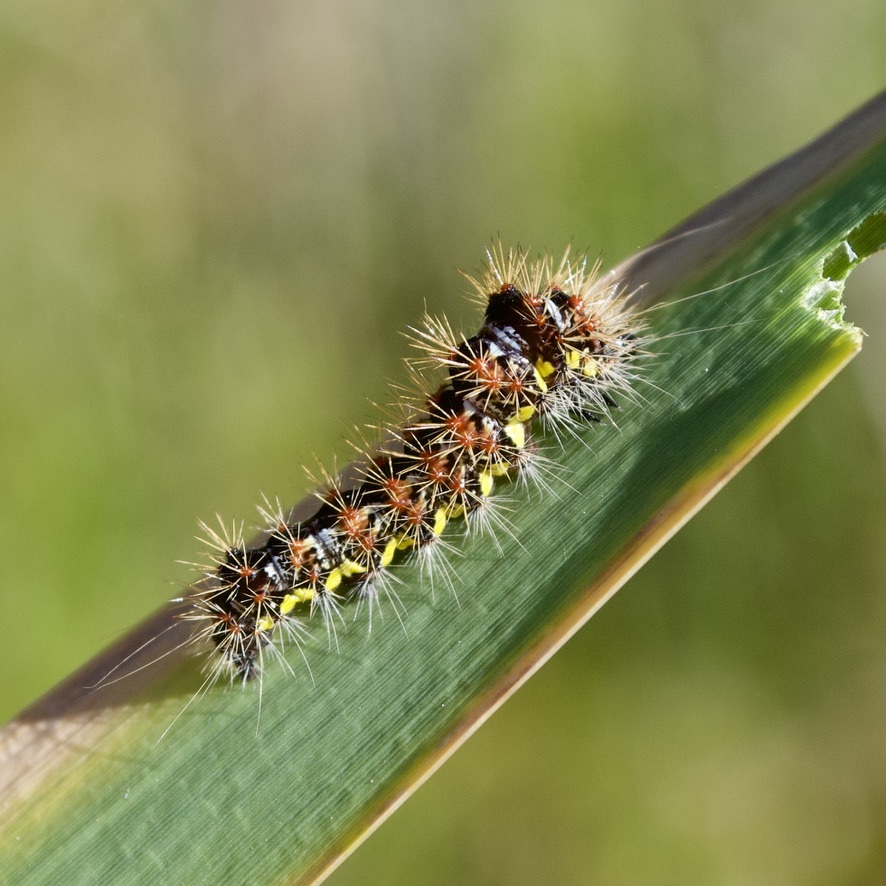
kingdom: Animalia
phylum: Arthropoda
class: Insecta
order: Lepidoptera
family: Noctuidae
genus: Acronicta
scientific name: Acronicta oblinita
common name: Smeared dagger
